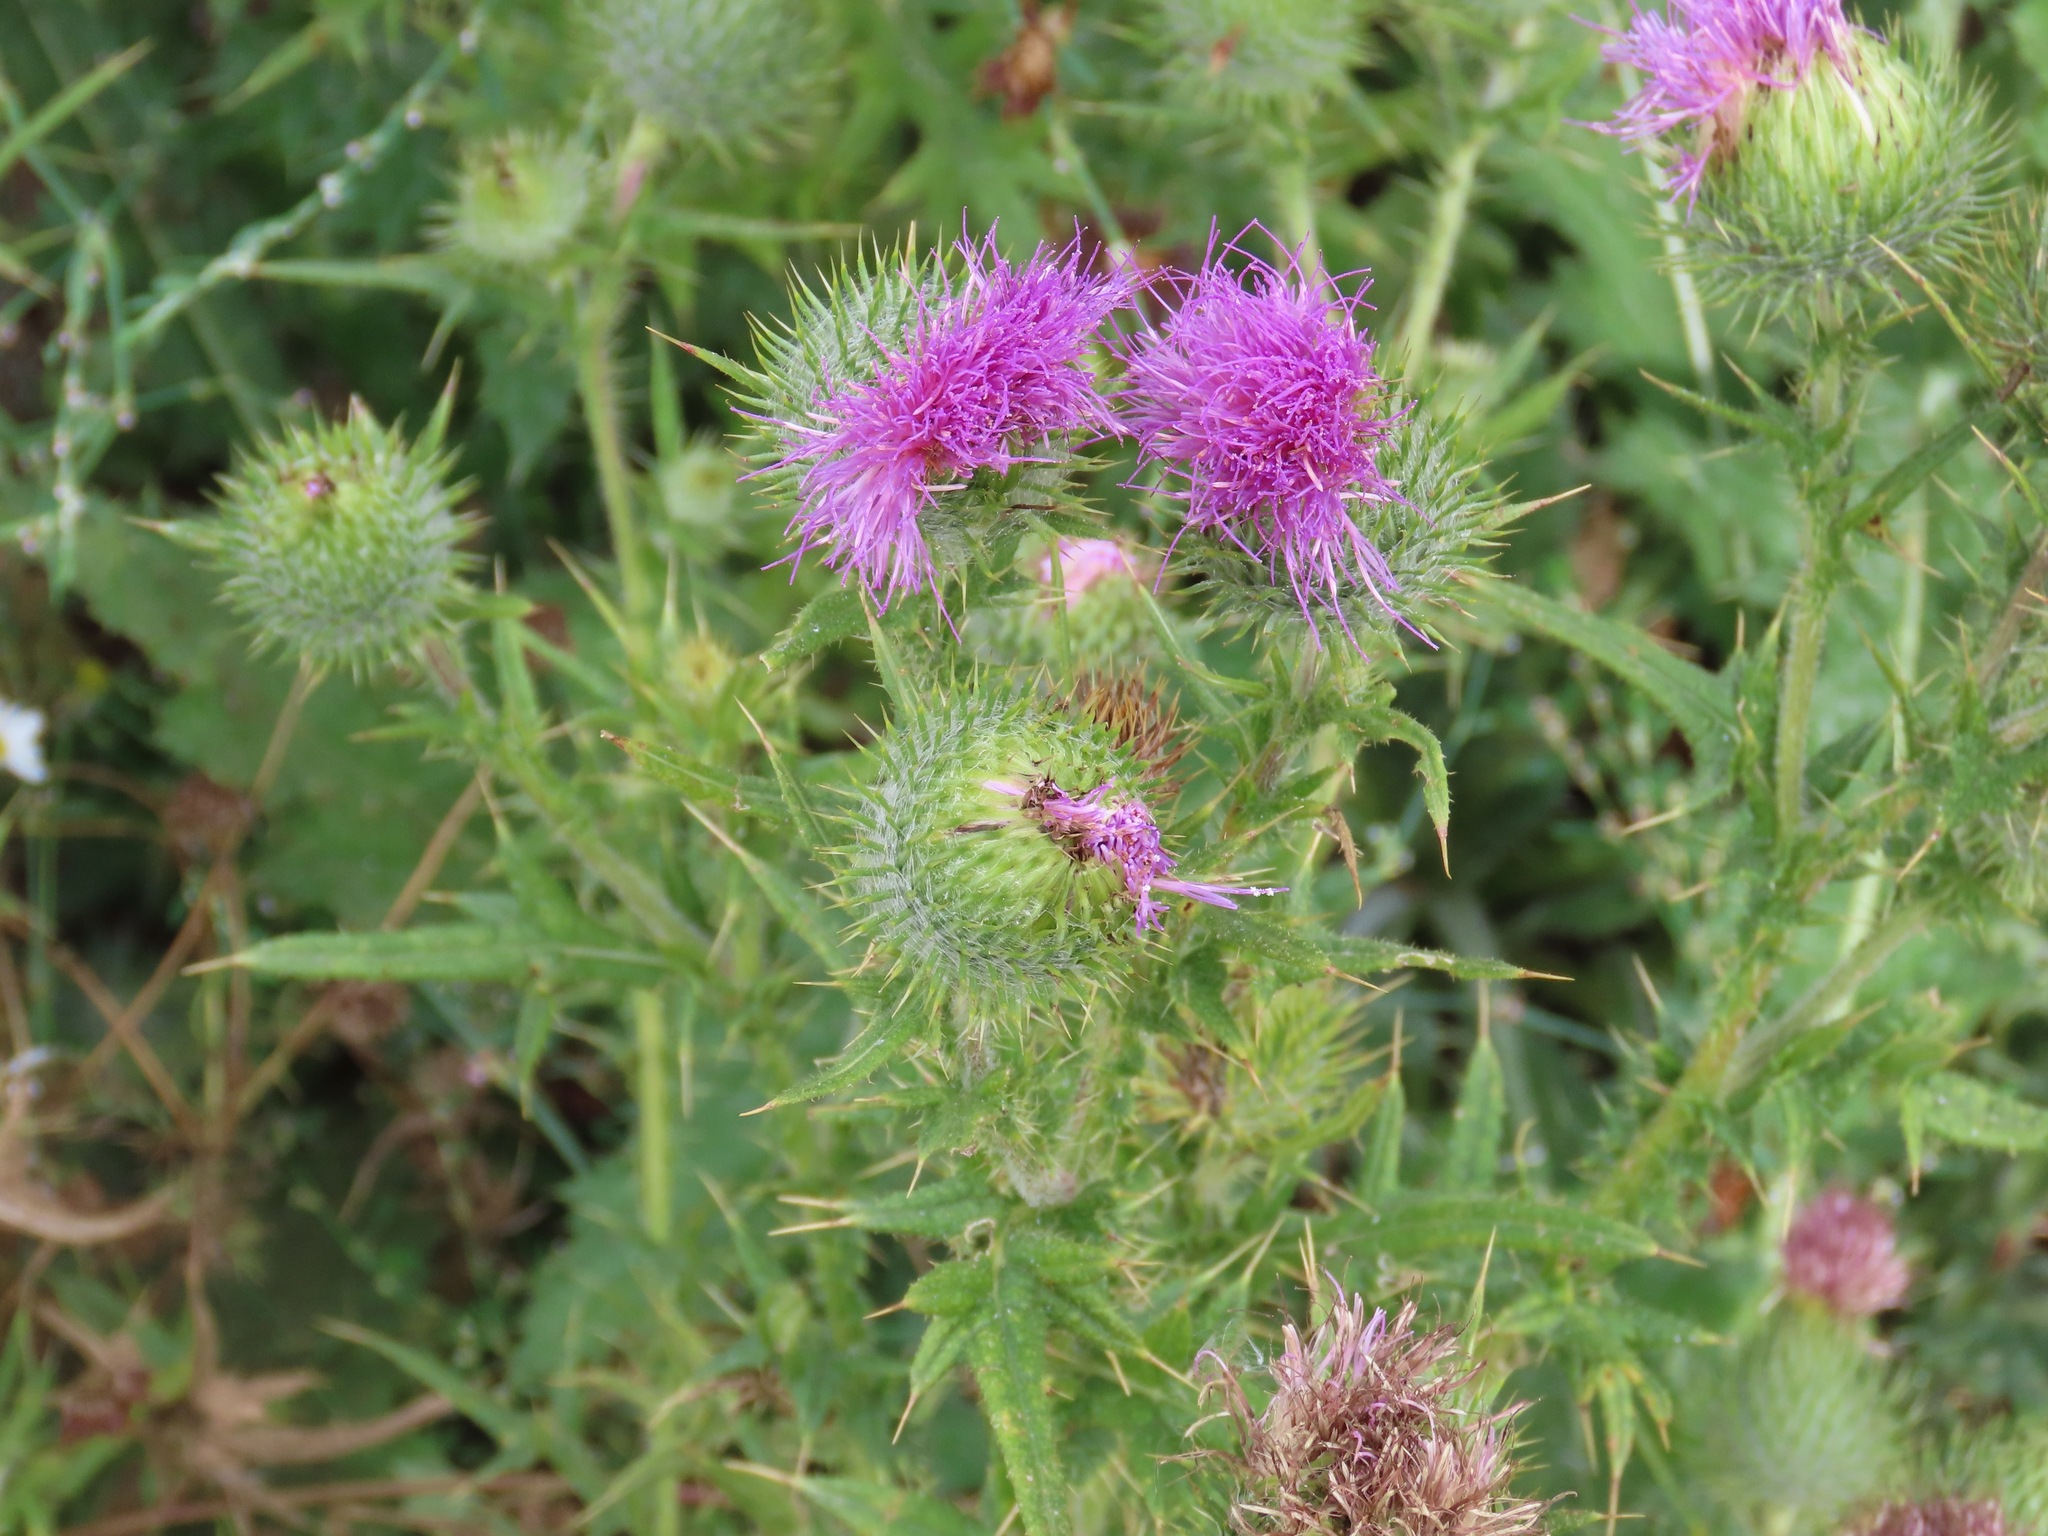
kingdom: Plantae
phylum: Tracheophyta
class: Magnoliopsida
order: Asterales
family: Asteraceae
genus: Cirsium
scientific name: Cirsium vulgare
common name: Bull thistle
